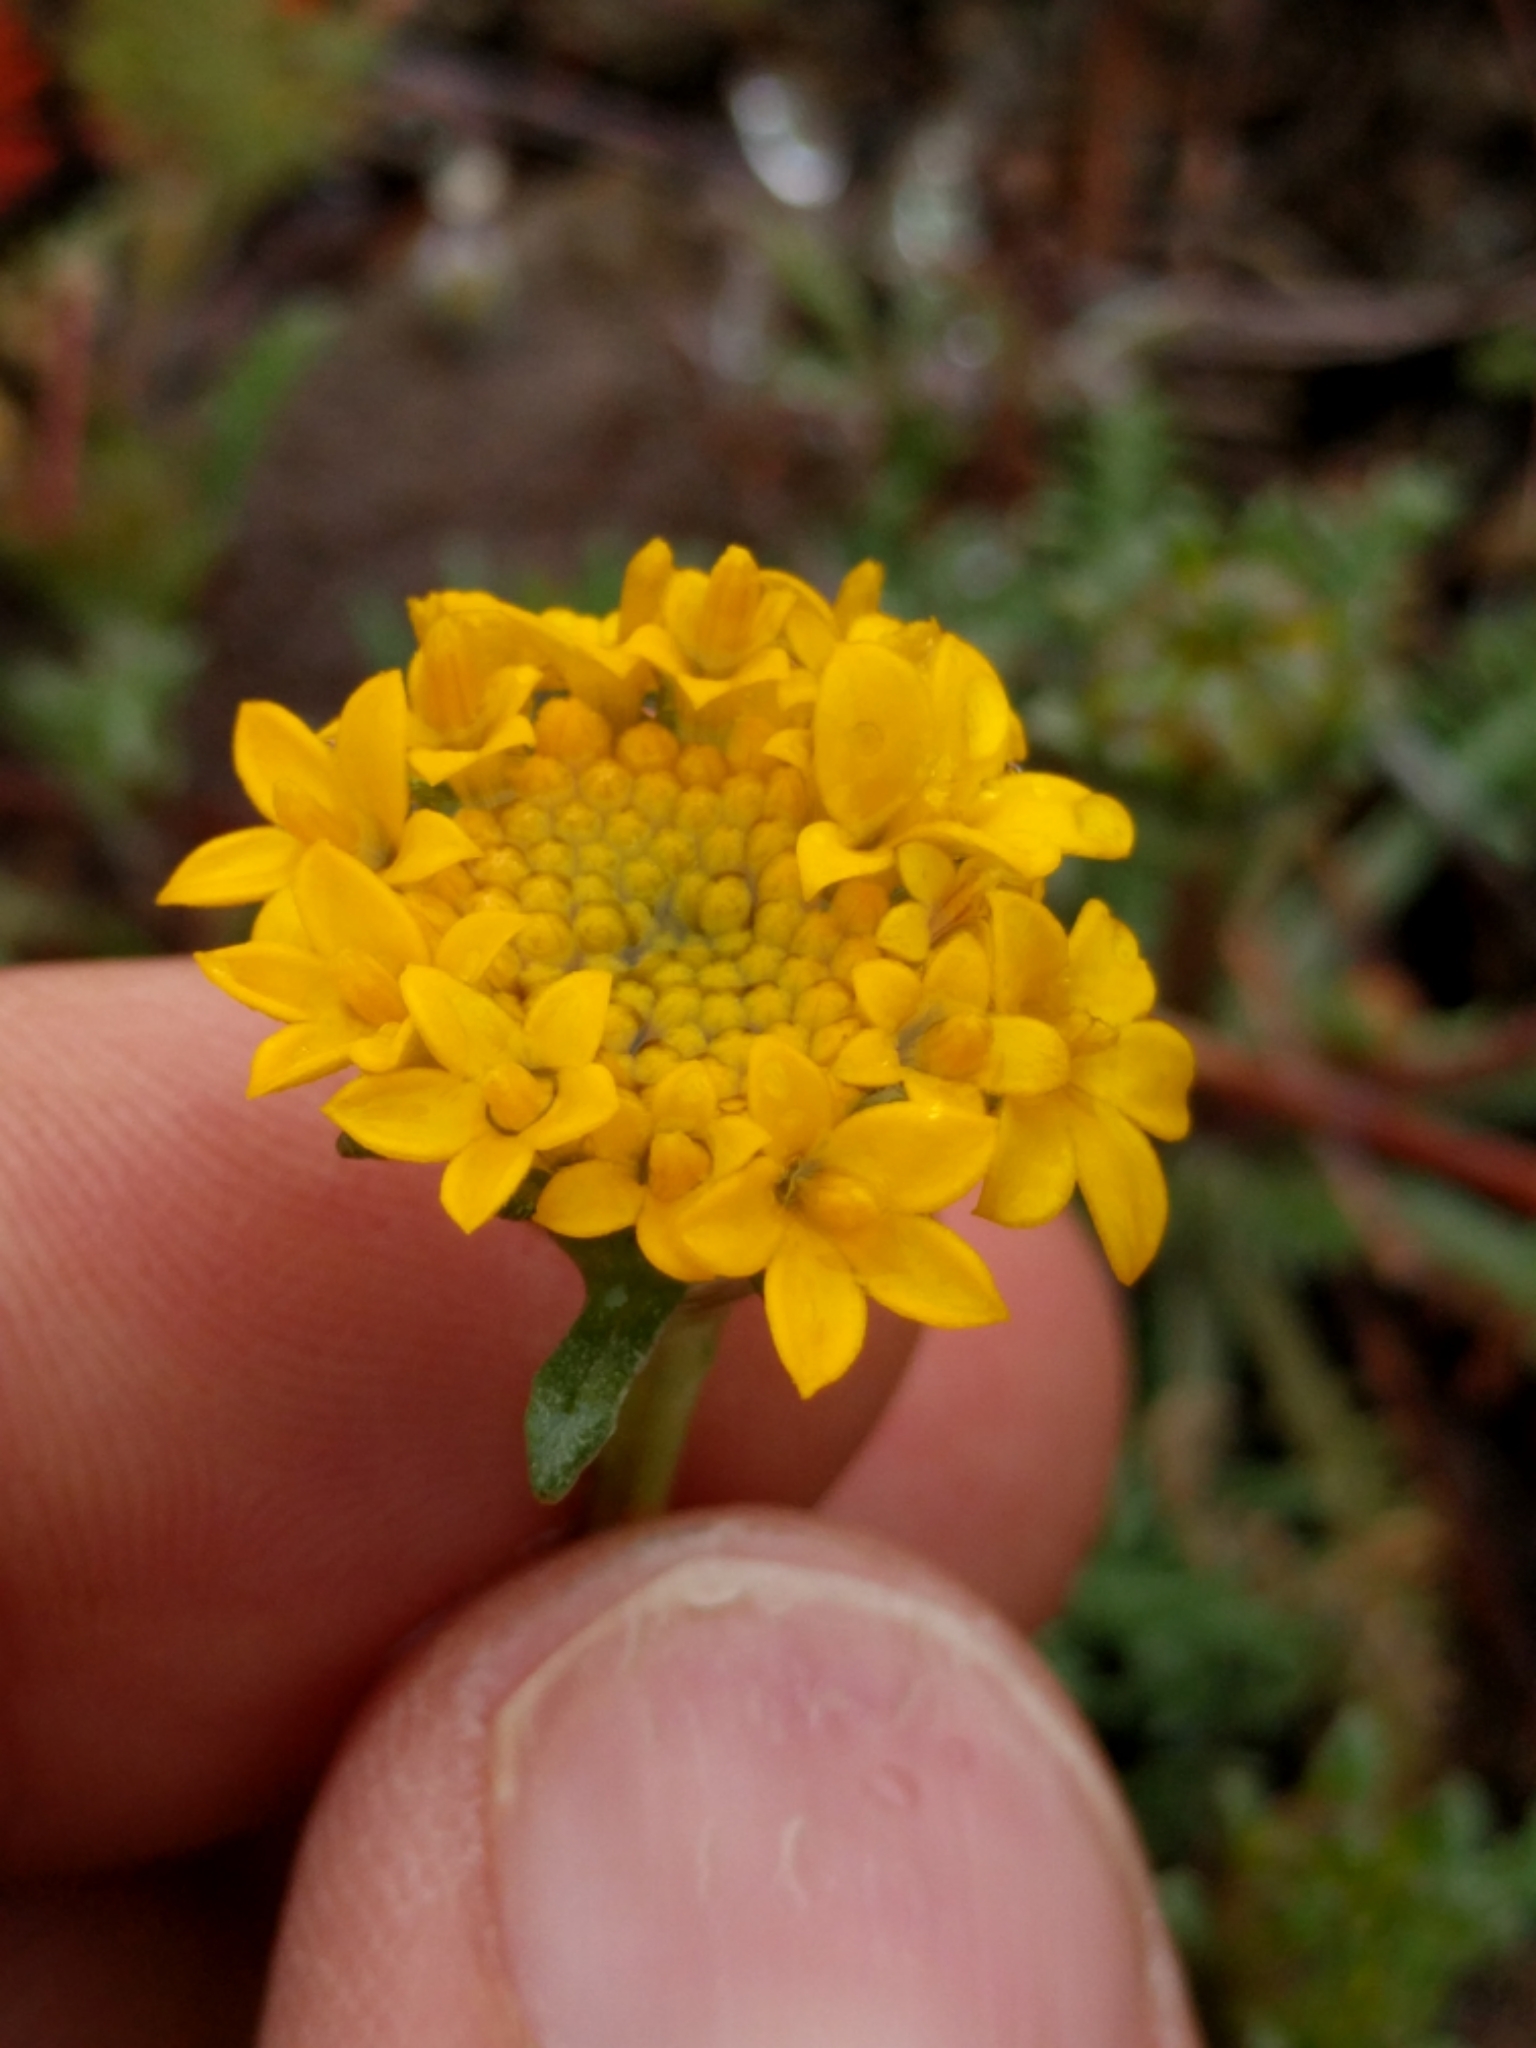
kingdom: Plantae
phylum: Tracheophyta
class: Magnoliopsida
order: Asterales
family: Asteraceae
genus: Chaenactis
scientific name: Chaenactis glabriuscula
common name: Yellow pincushion
